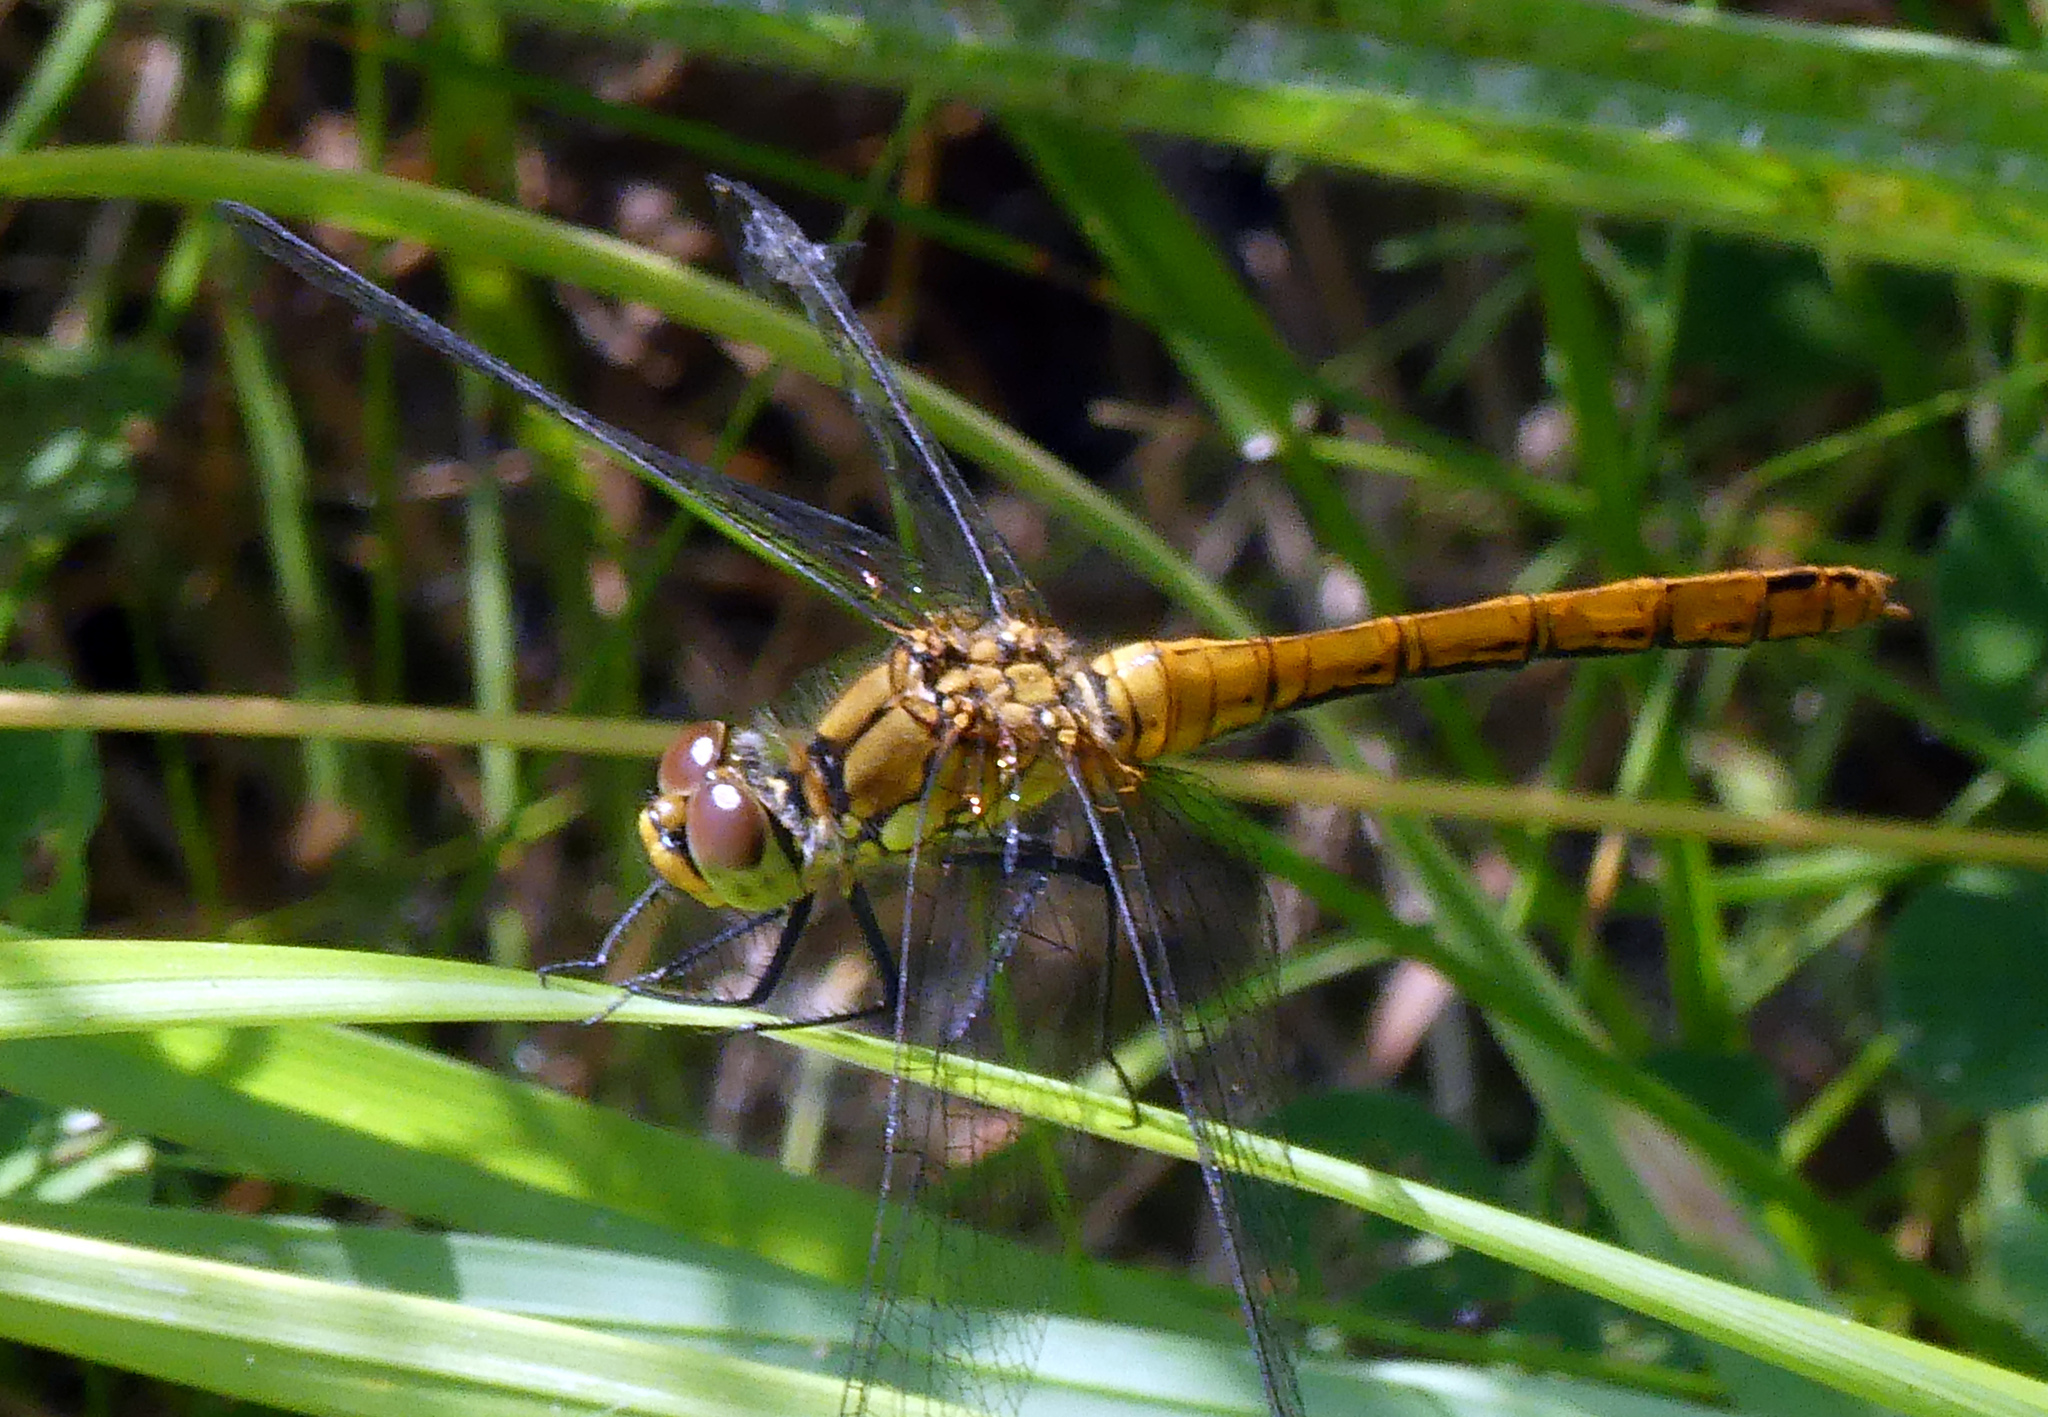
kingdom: Animalia
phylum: Arthropoda
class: Insecta
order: Odonata
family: Libellulidae
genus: Sympetrum
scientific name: Sympetrum sanguineum
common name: Ruddy darter
